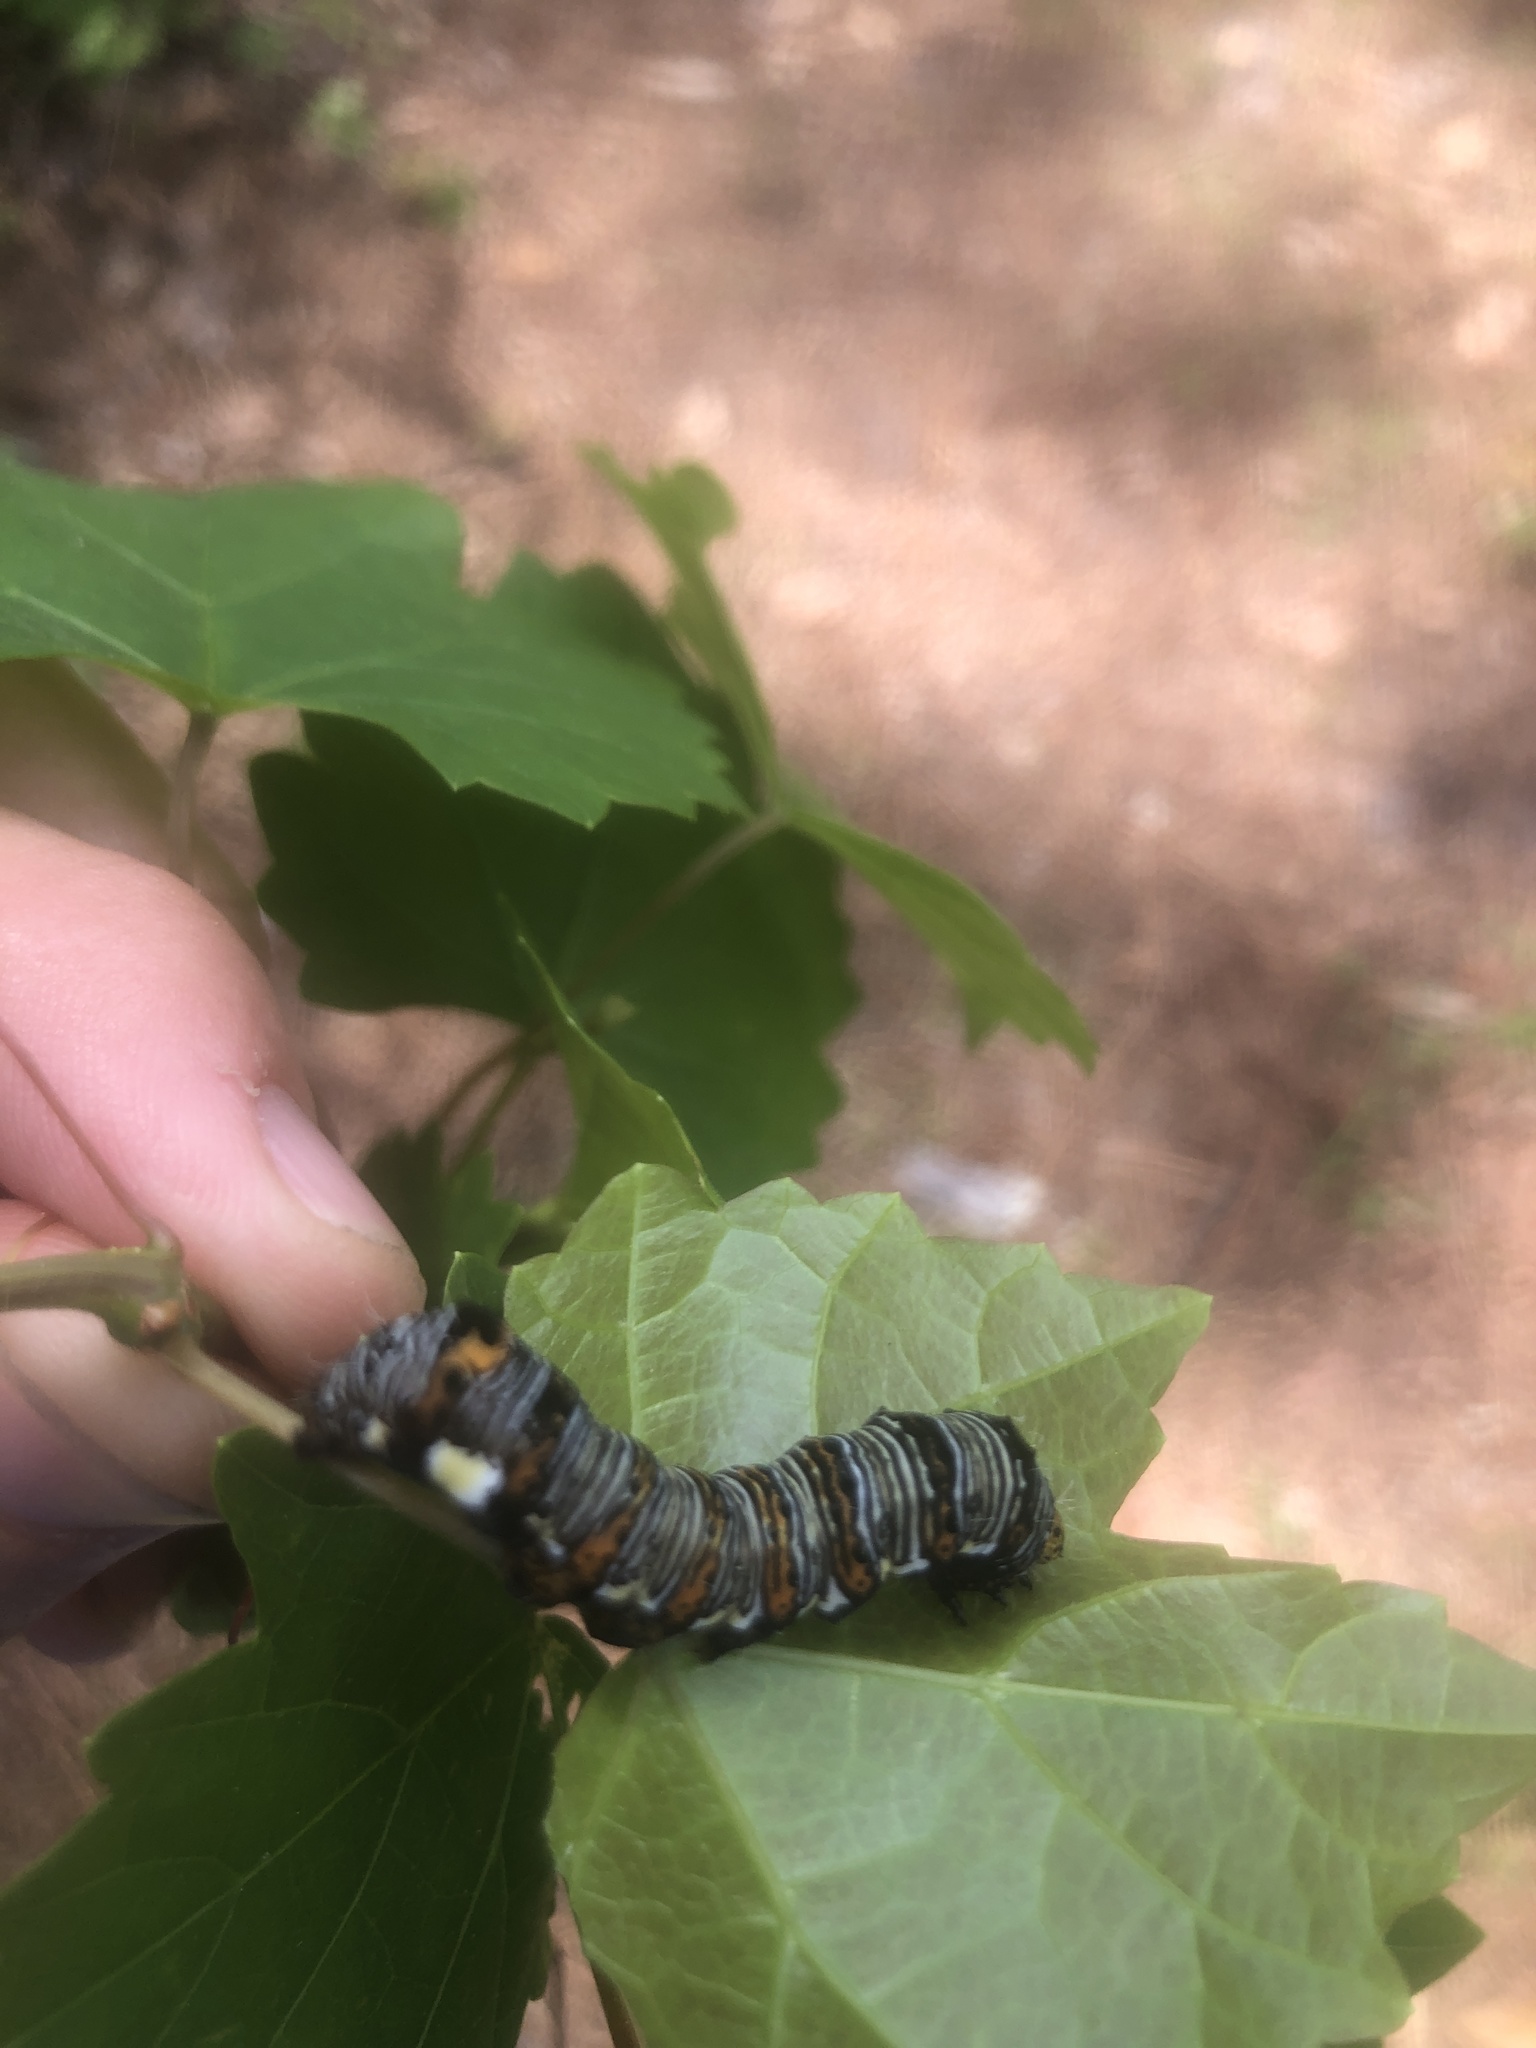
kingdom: Animalia
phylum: Arthropoda
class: Insecta
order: Lepidoptera
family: Noctuidae
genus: Alypia
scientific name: Alypia octomaculata
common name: Eight-spotted forester
